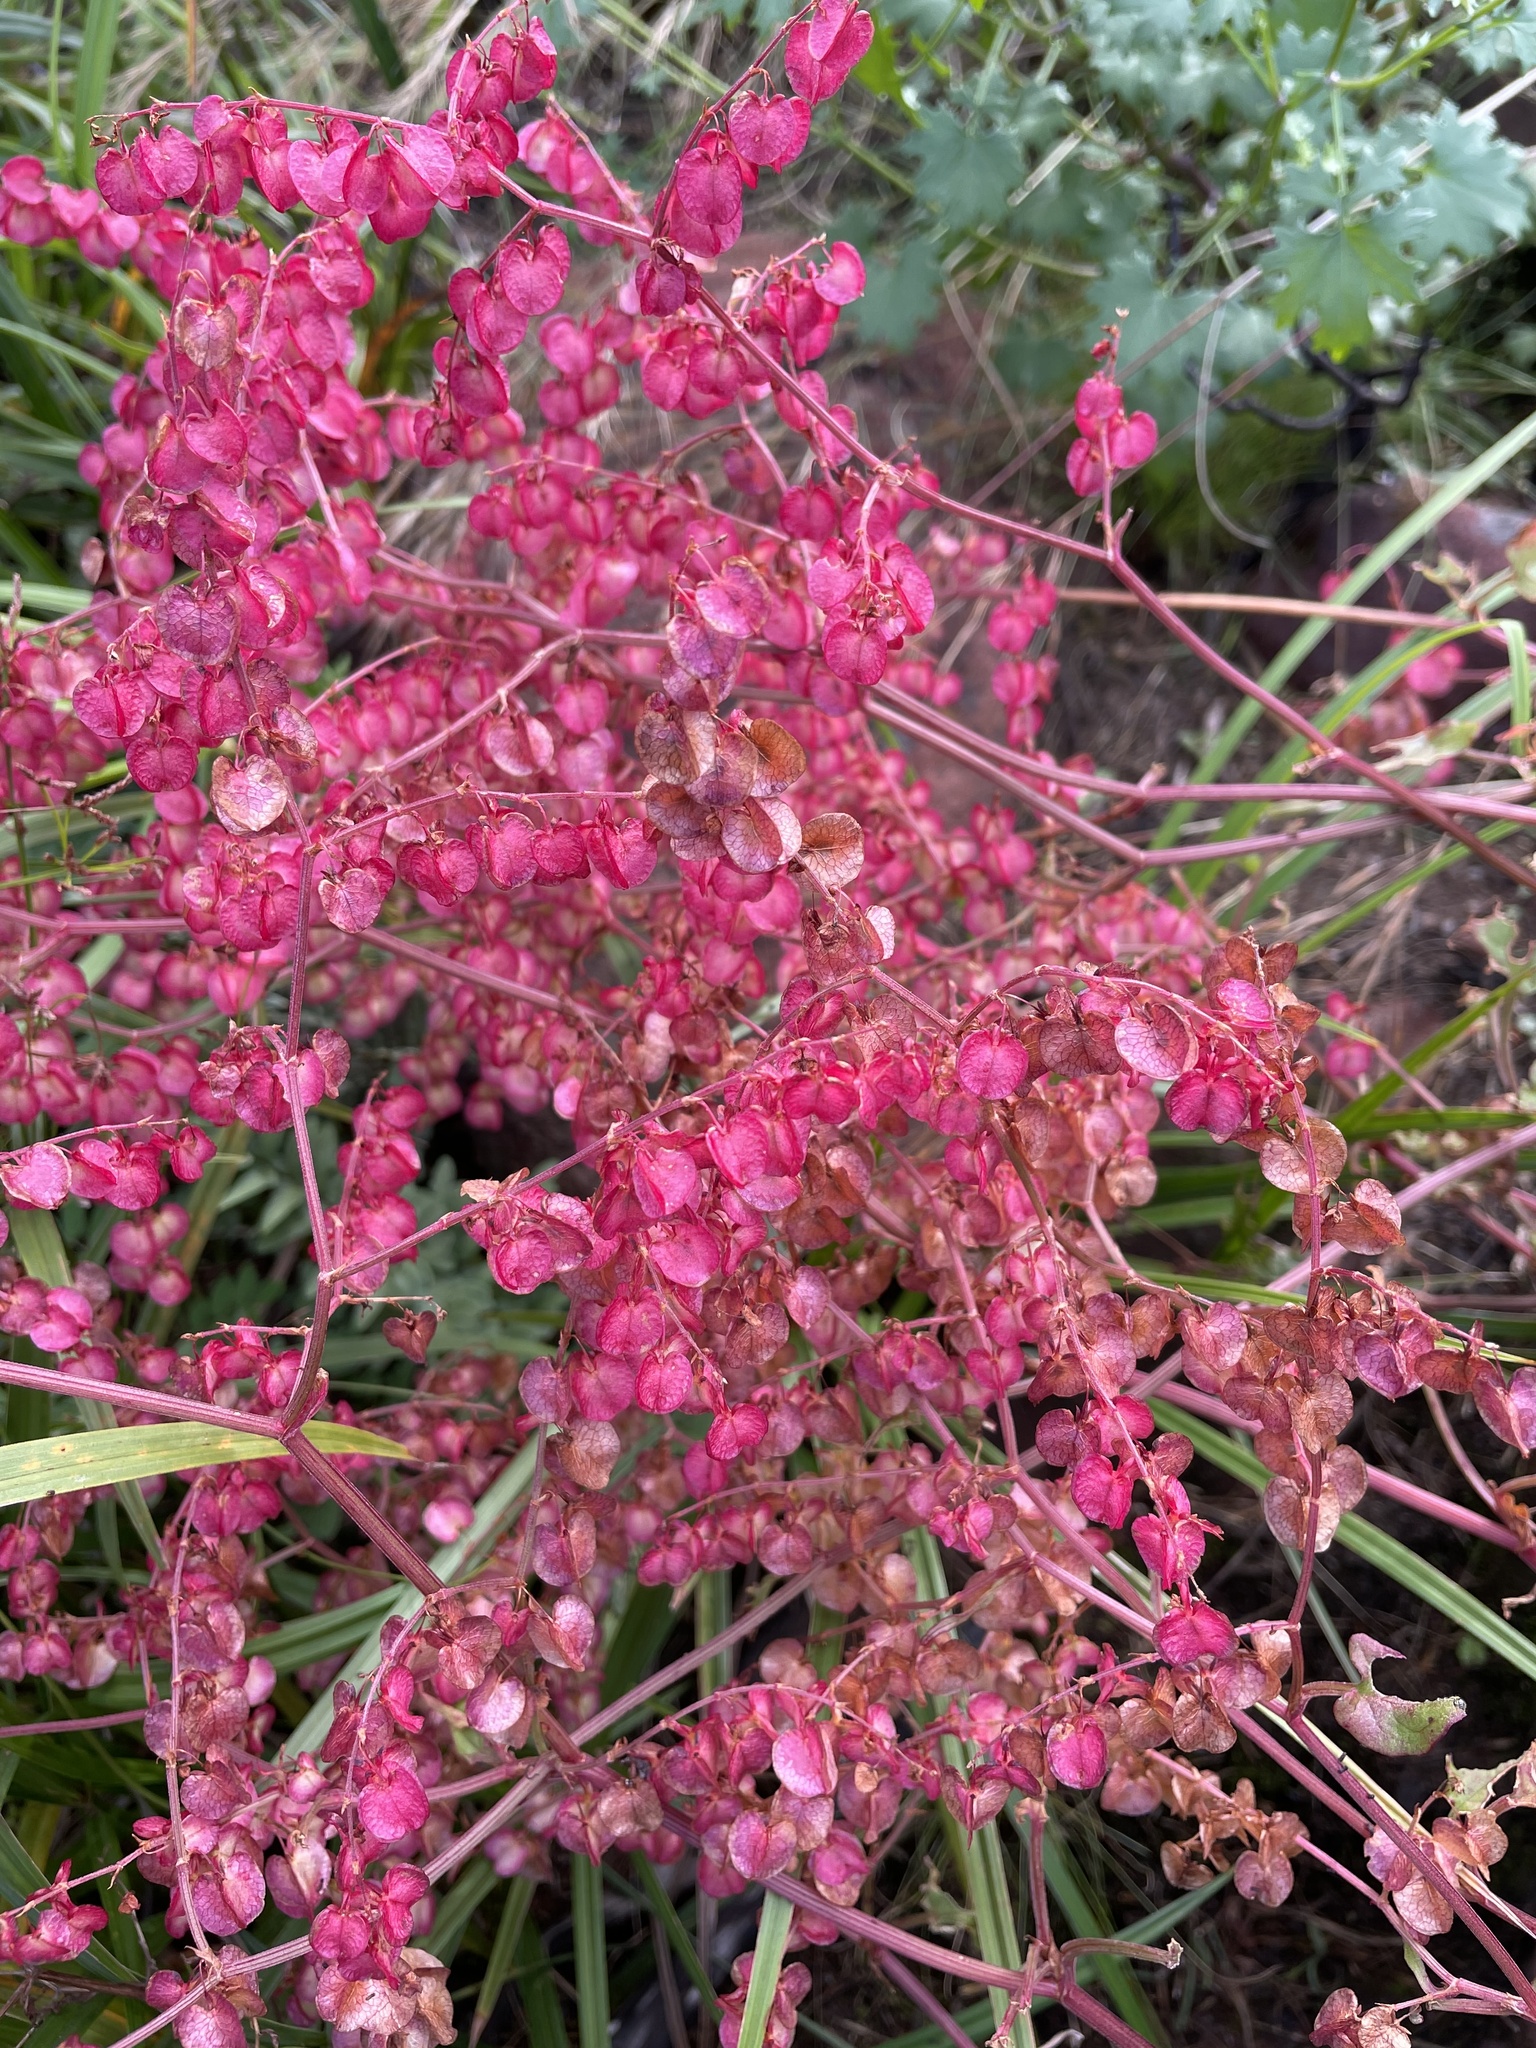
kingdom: Plantae
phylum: Tracheophyta
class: Magnoliopsida
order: Caryophyllales
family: Polygonaceae
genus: Rumex
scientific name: Rumex usambarensis
